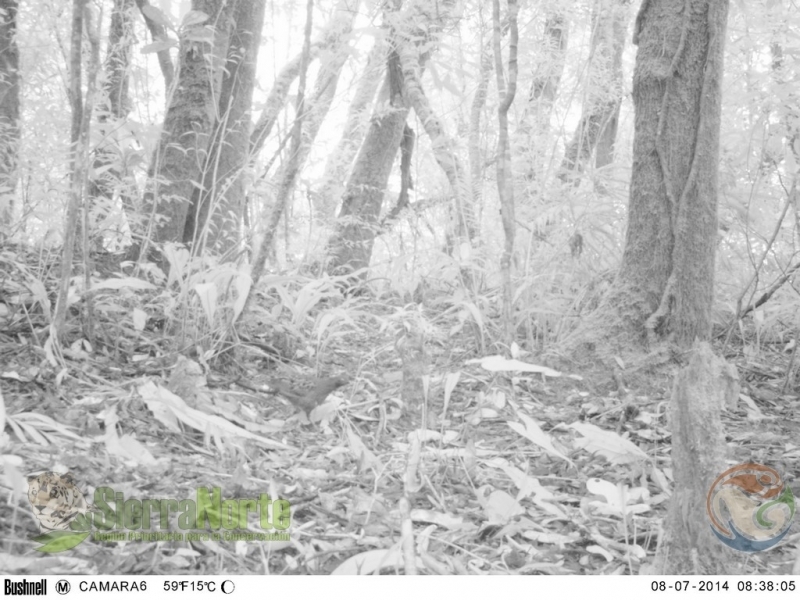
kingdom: Animalia
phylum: Chordata
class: Aves
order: Galliformes
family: Odontophoridae
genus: Colinus
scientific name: Colinus virginianus
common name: Northern bobwhite
